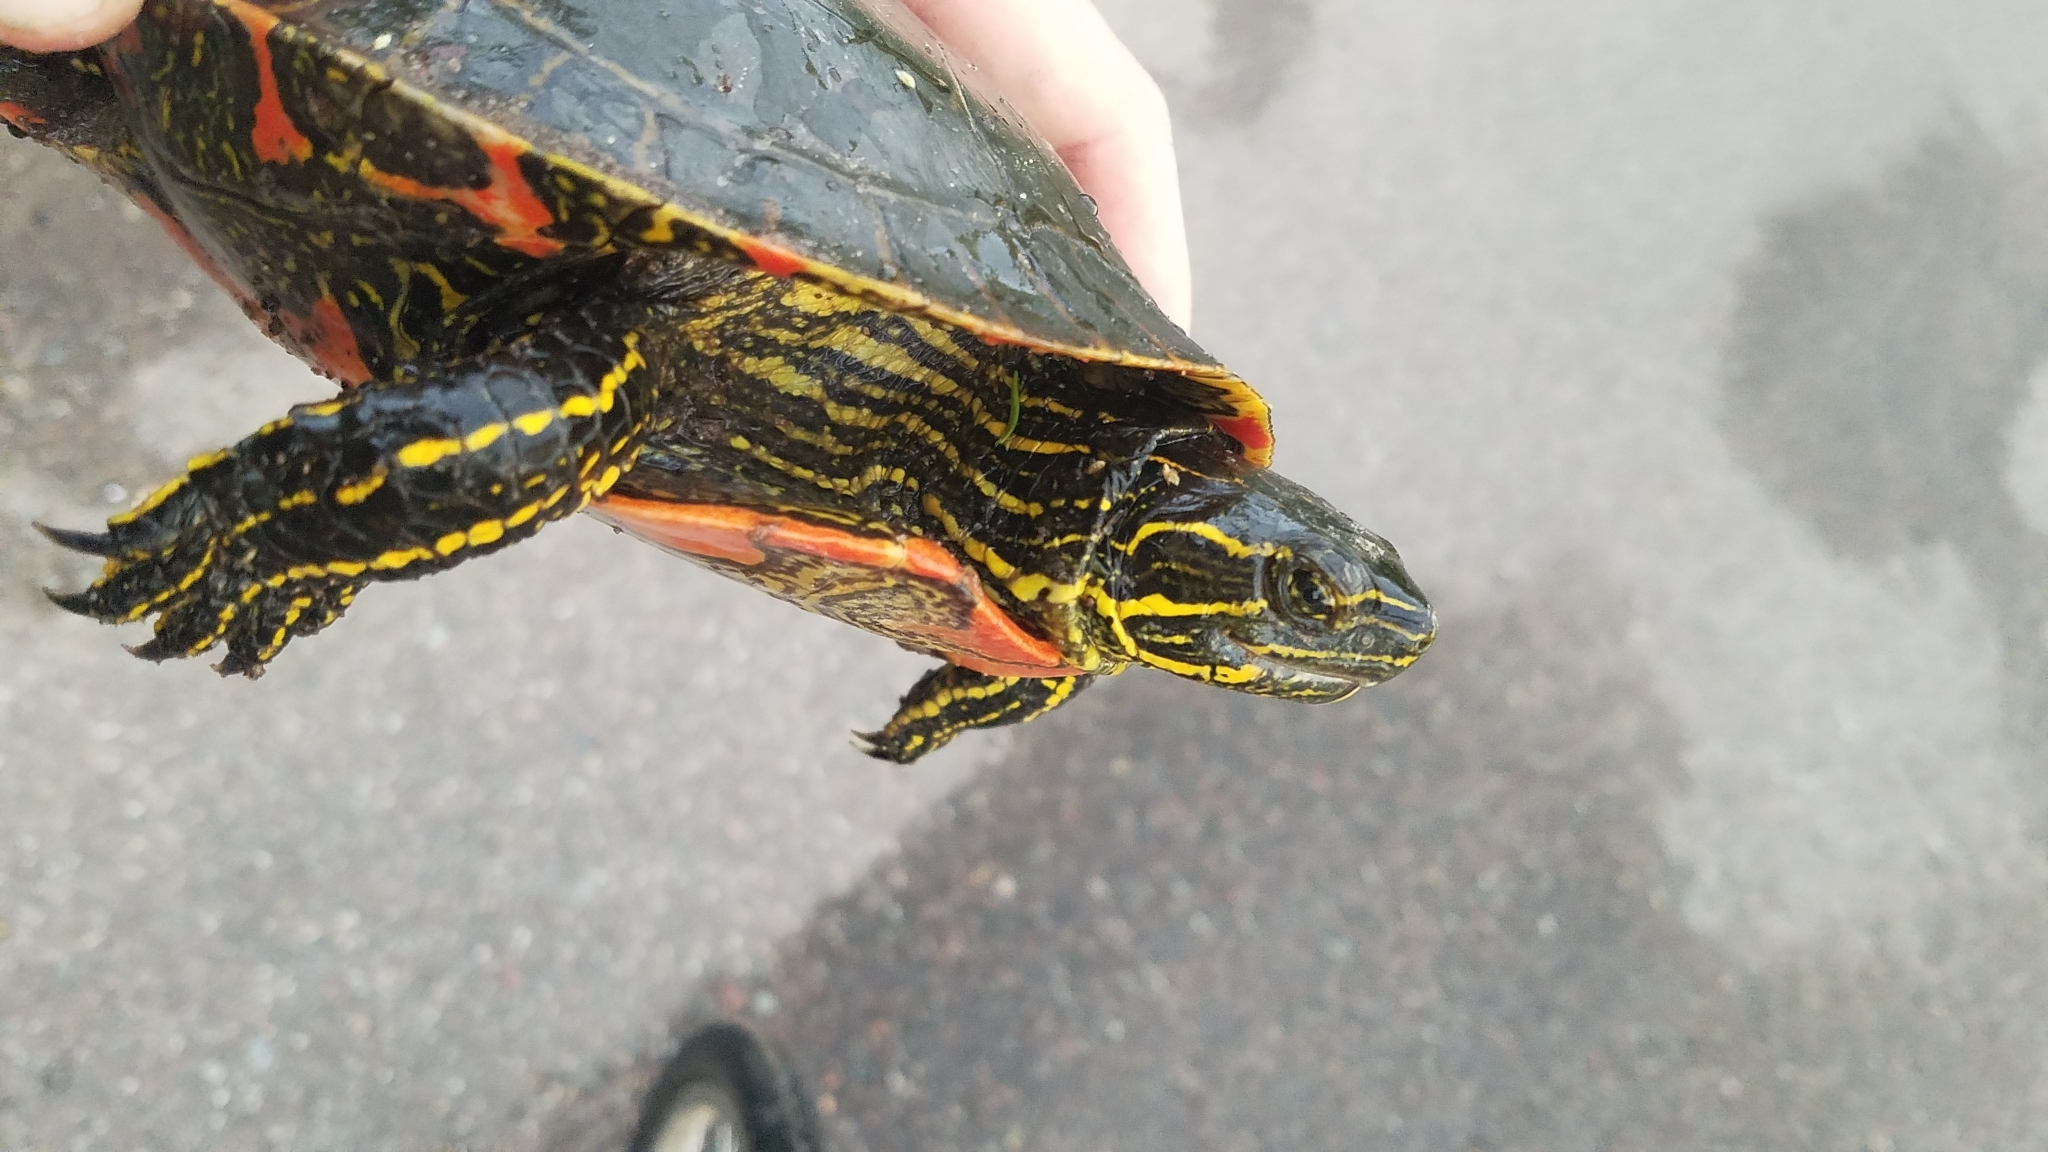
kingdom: Animalia
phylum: Chordata
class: Testudines
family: Emydidae
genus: Chrysemys
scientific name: Chrysemys picta
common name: Painted turtle
